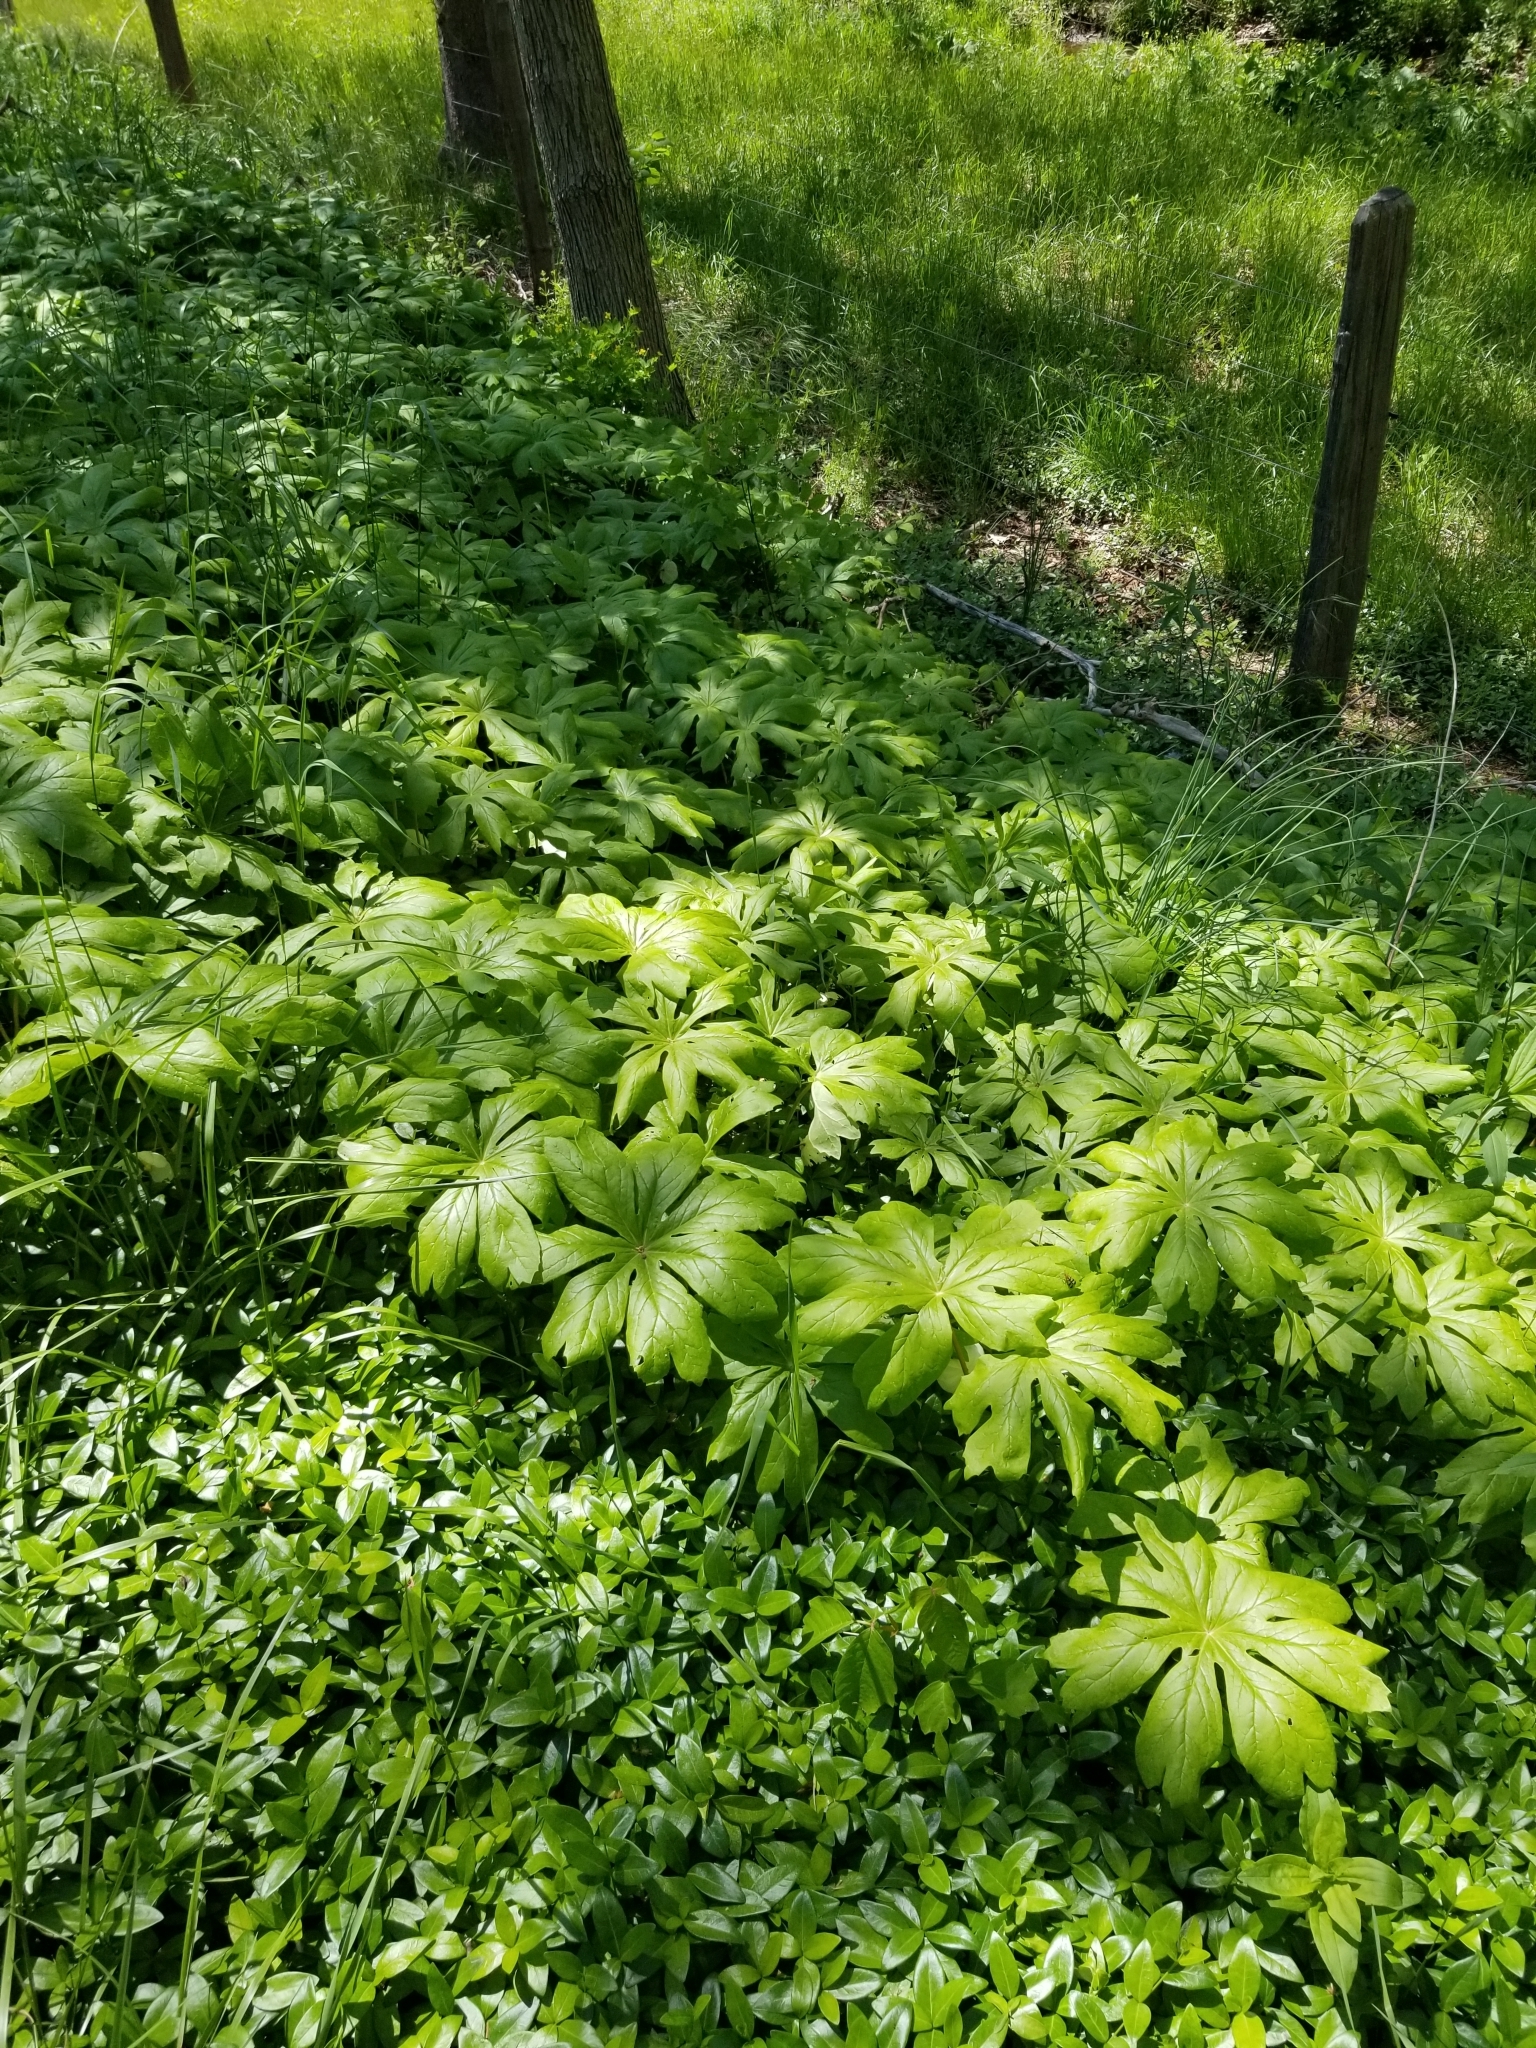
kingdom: Plantae
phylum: Tracheophyta
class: Magnoliopsida
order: Ranunculales
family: Berberidaceae
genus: Podophyllum
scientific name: Podophyllum peltatum
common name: Wild mandrake
